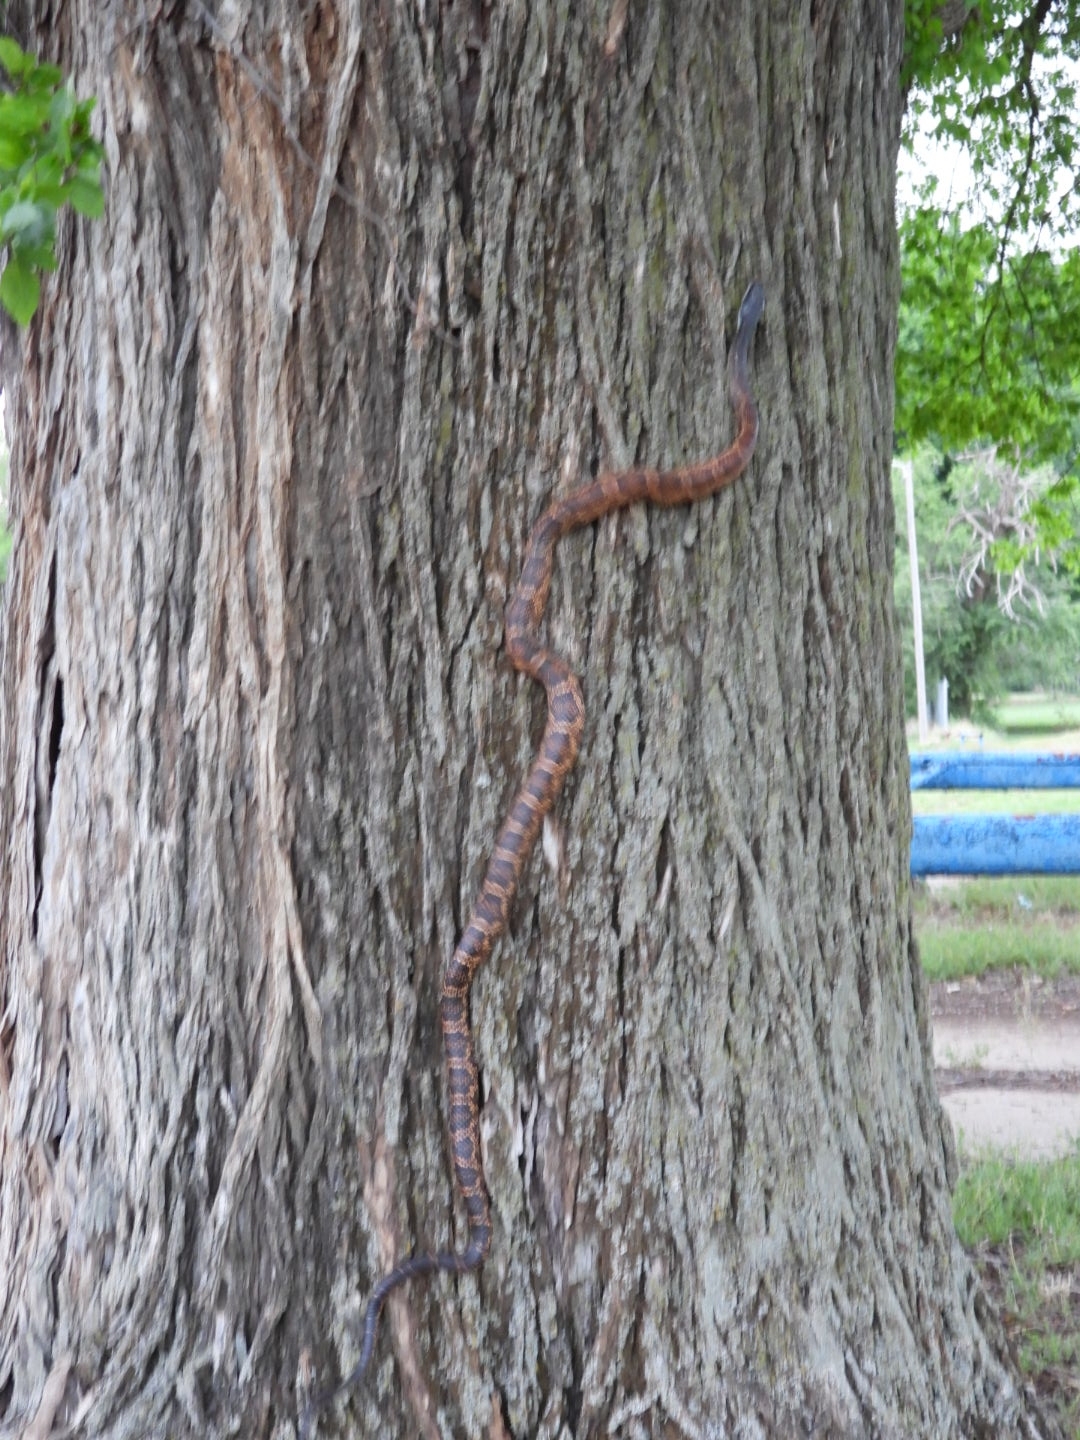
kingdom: Animalia
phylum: Chordata
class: Squamata
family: Colubridae
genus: Pantherophis
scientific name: Pantherophis obsoletus
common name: Black rat snake
